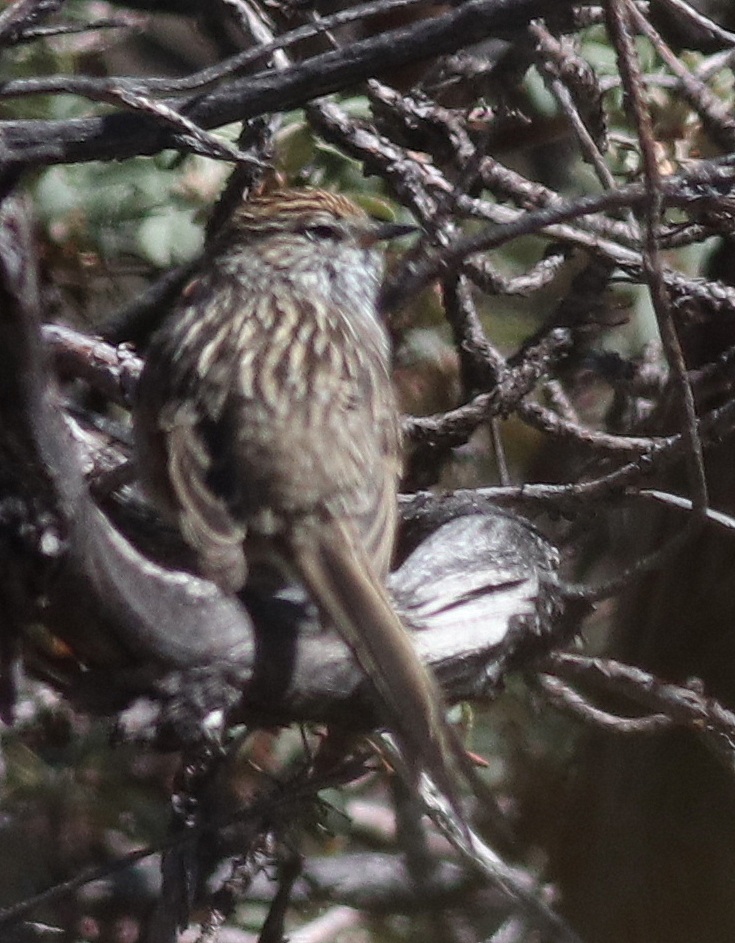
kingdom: Animalia
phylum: Chordata
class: Aves
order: Passeriformes
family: Furnariidae
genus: Leptasthenura
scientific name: Leptasthenura striata
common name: Streak-backed tit-spinetail
